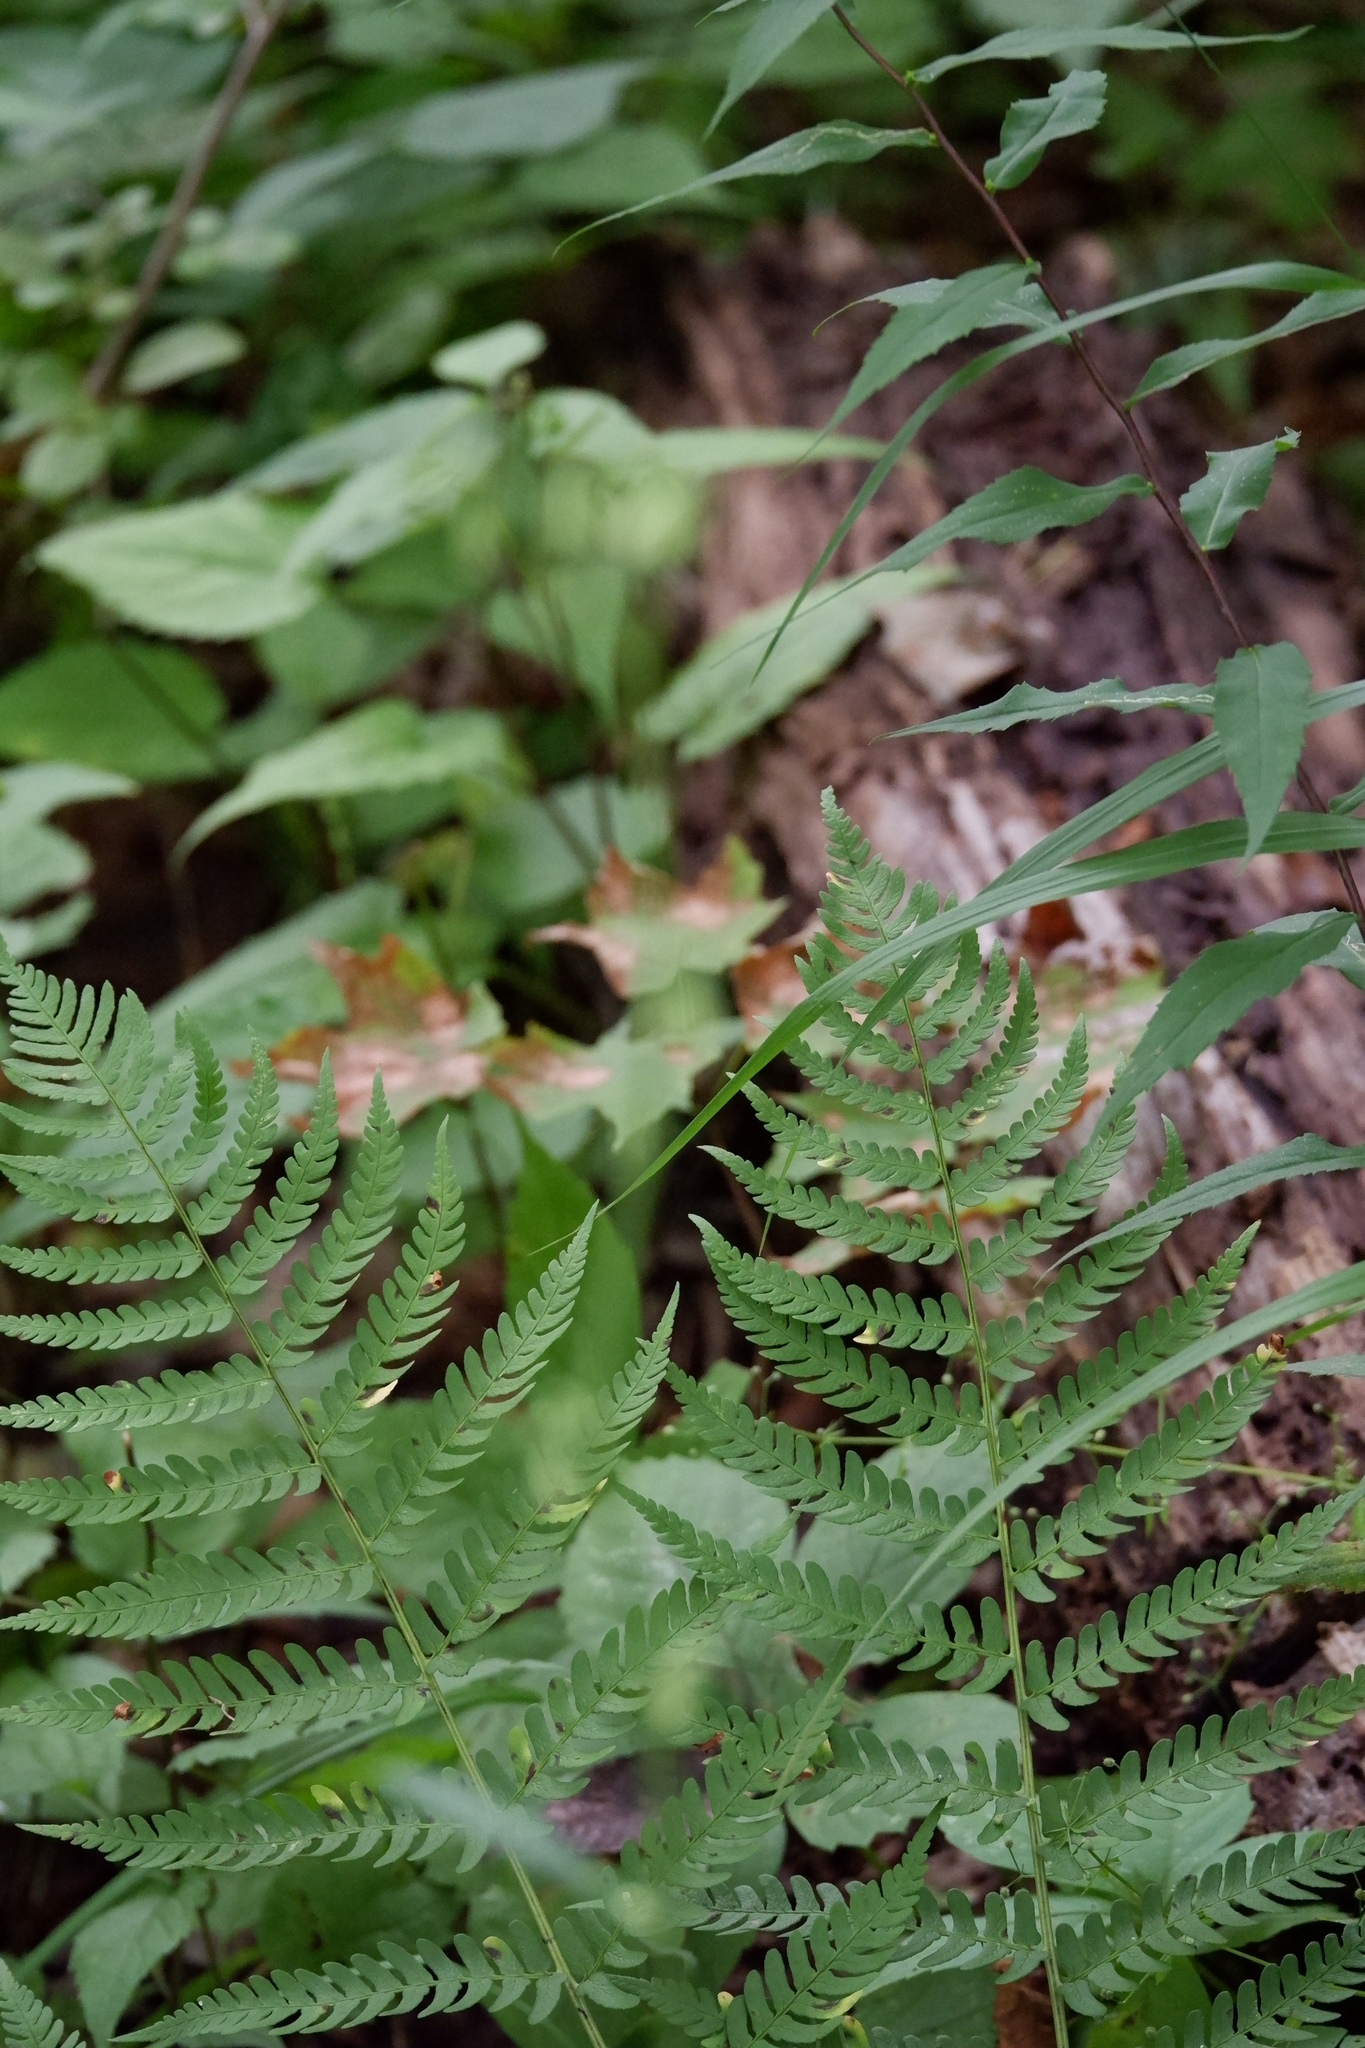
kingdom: Plantae
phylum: Tracheophyta
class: Polypodiopsida
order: Polypodiales
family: Dryopteridaceae
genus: Dryopteris
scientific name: Dryopteris marginalis
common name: Marginal wood fern
